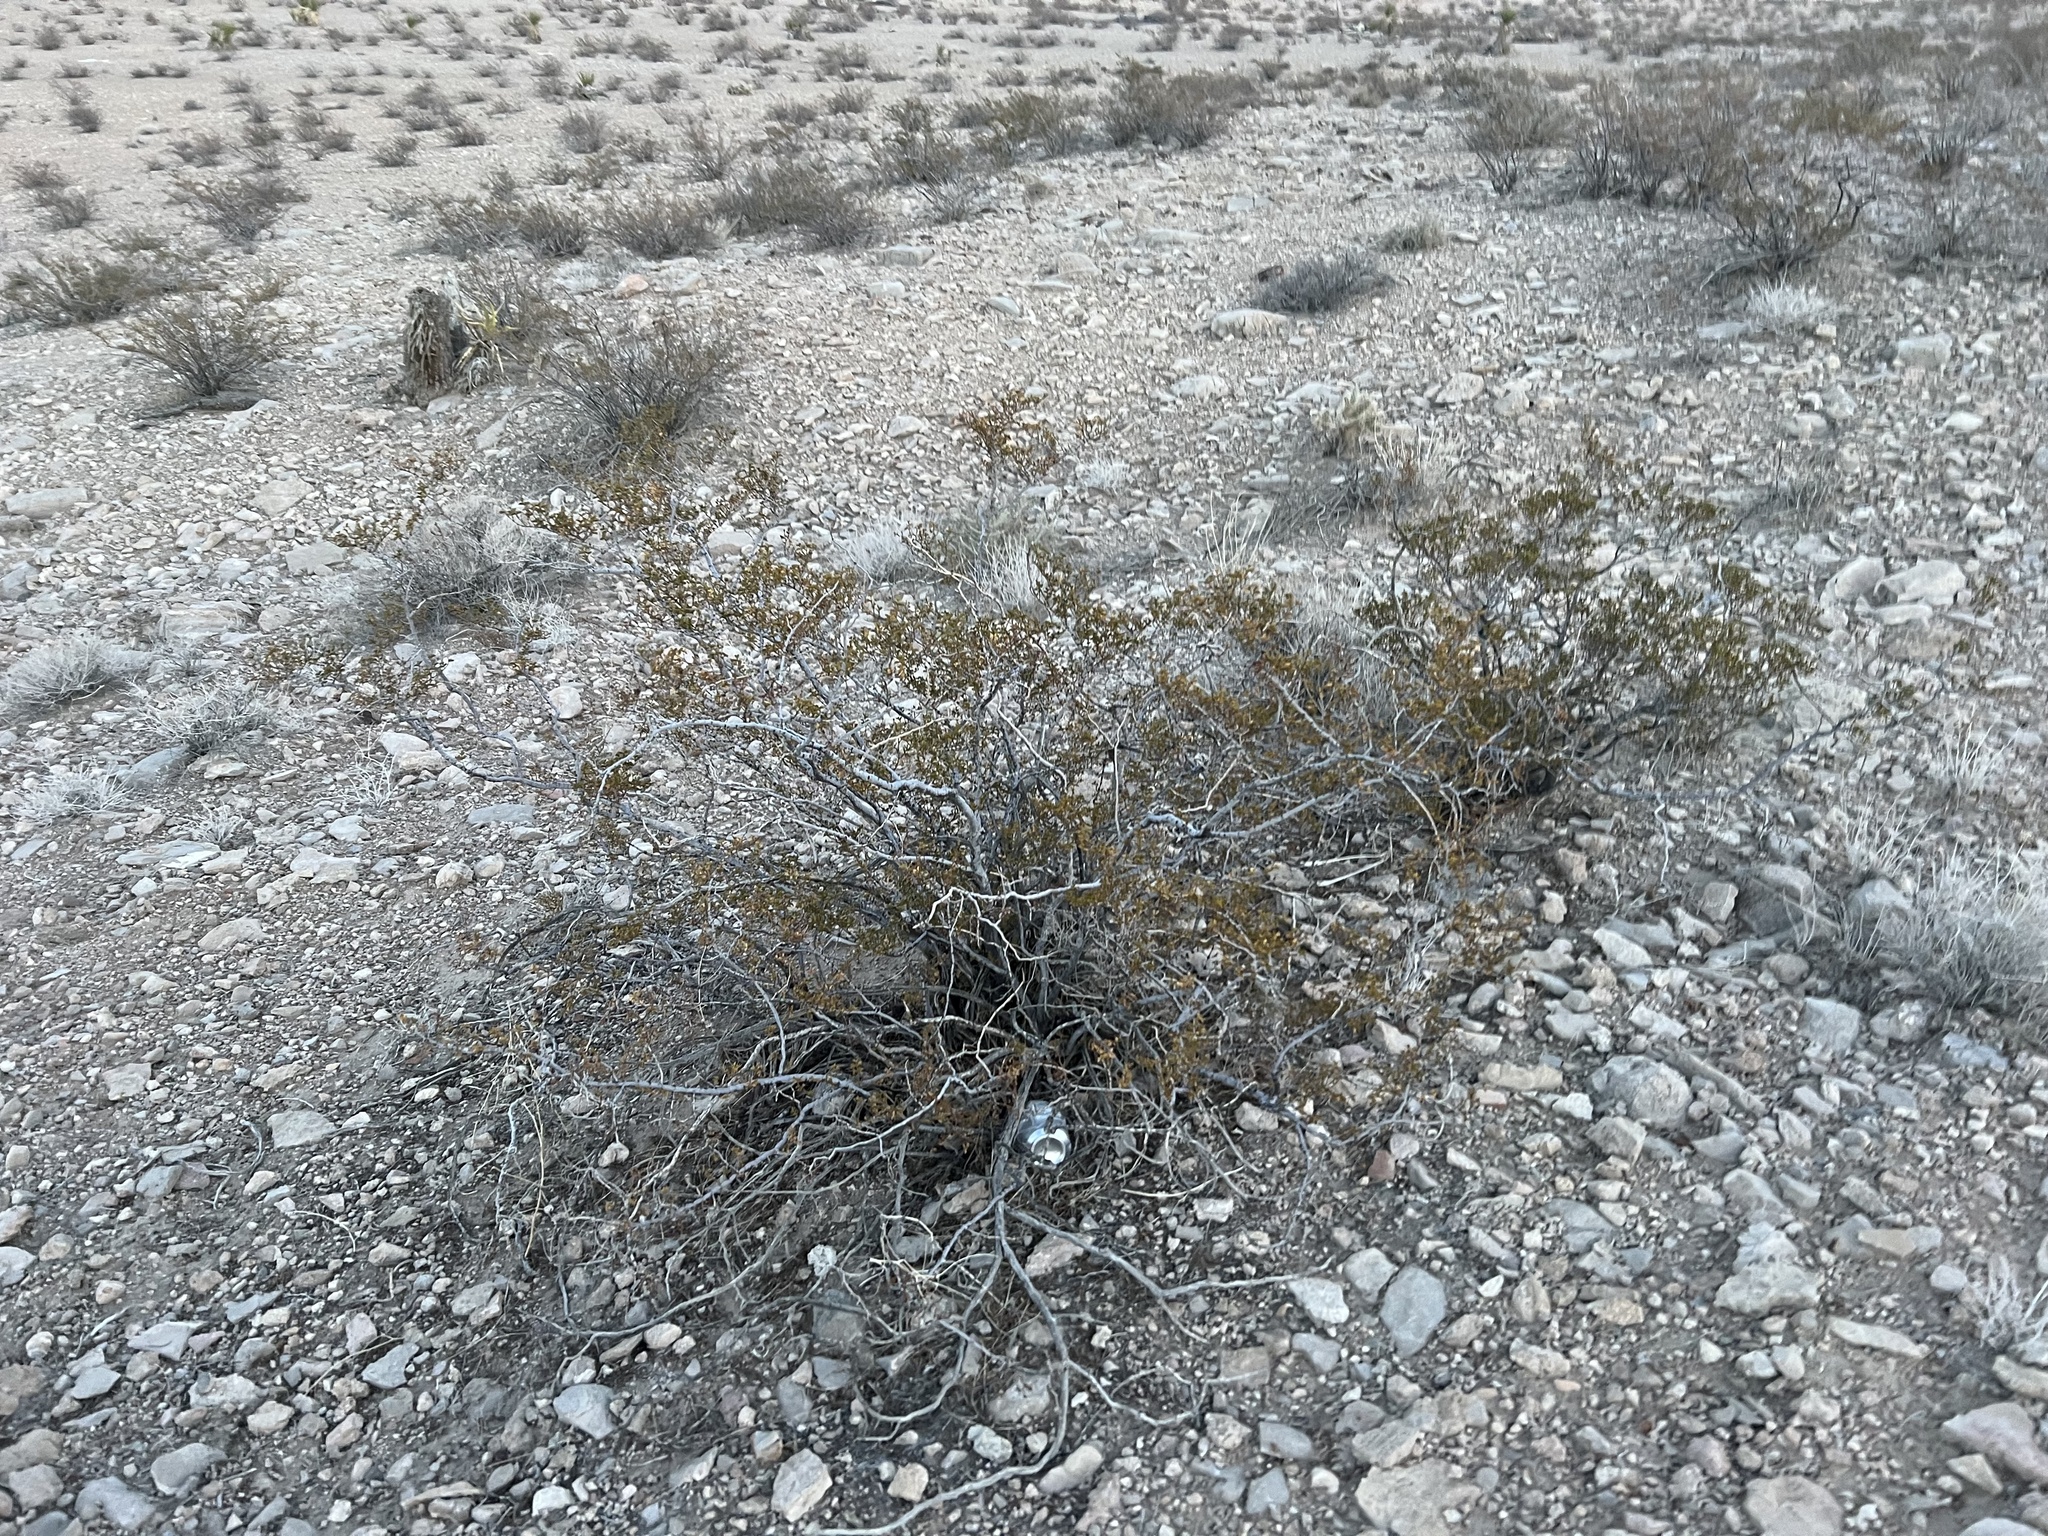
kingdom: Plantae
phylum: Tracheophyta
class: Magnoliopsida
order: Zygophyllales
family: Zygophyllaceae
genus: Larrea
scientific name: Larrea tridentata
